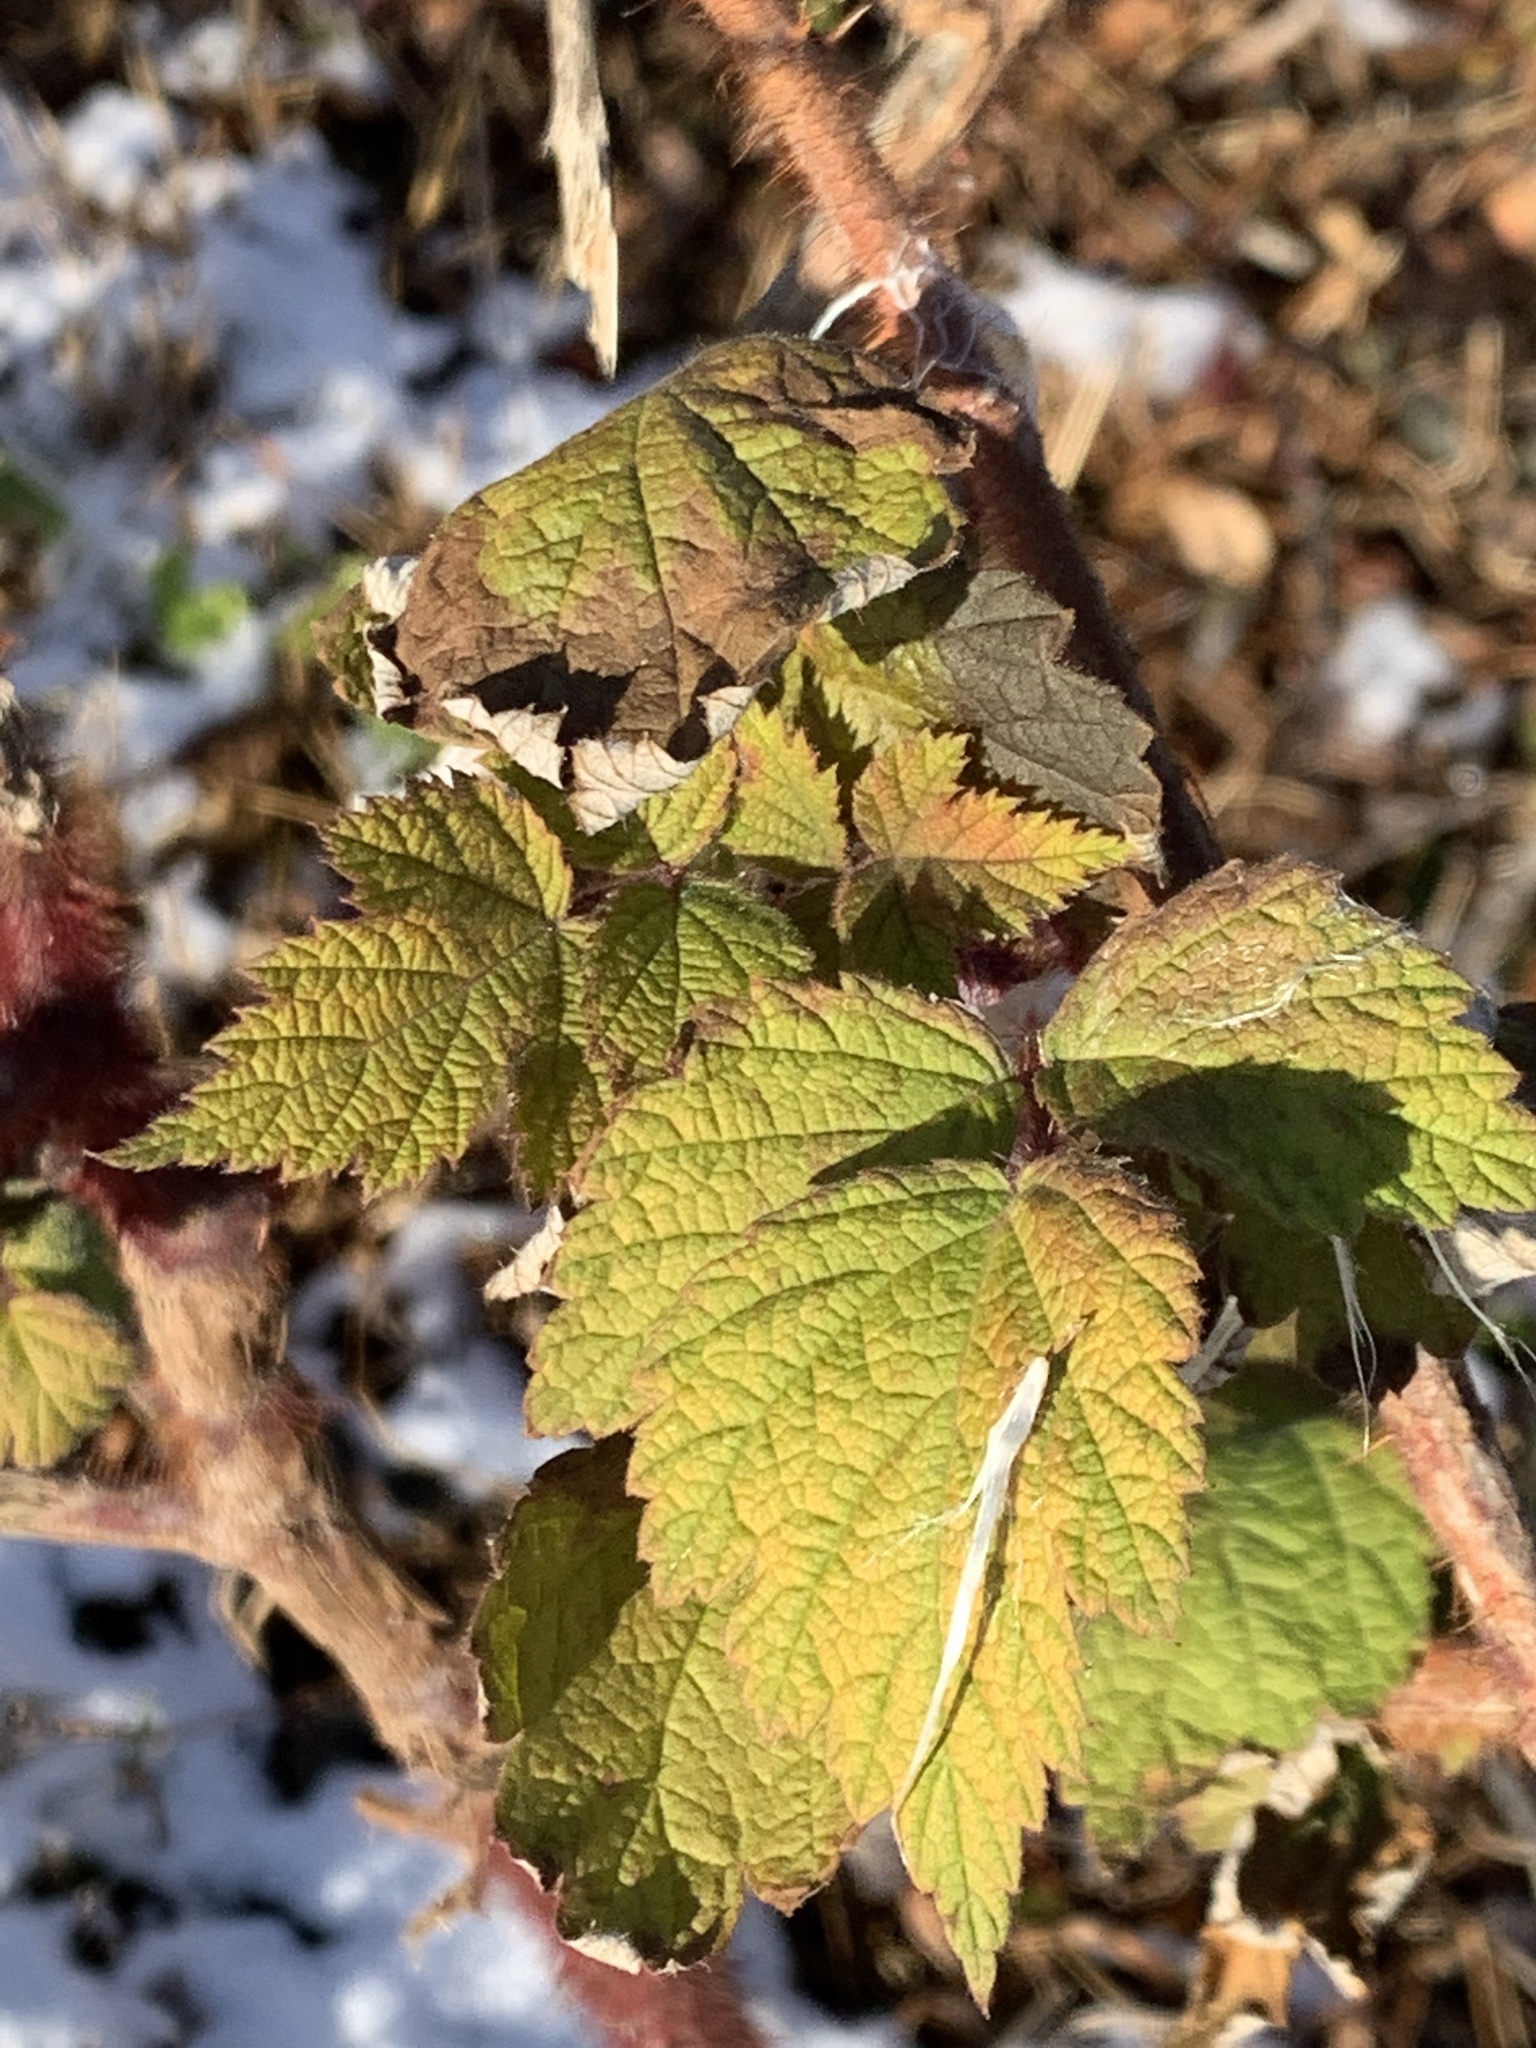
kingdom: Plantae
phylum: Tracheophyta
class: Magnoliopsida
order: Rosales
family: Rosaceae
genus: Rubus
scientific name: Rubus phoenicolasius
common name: Japanese wineberry
